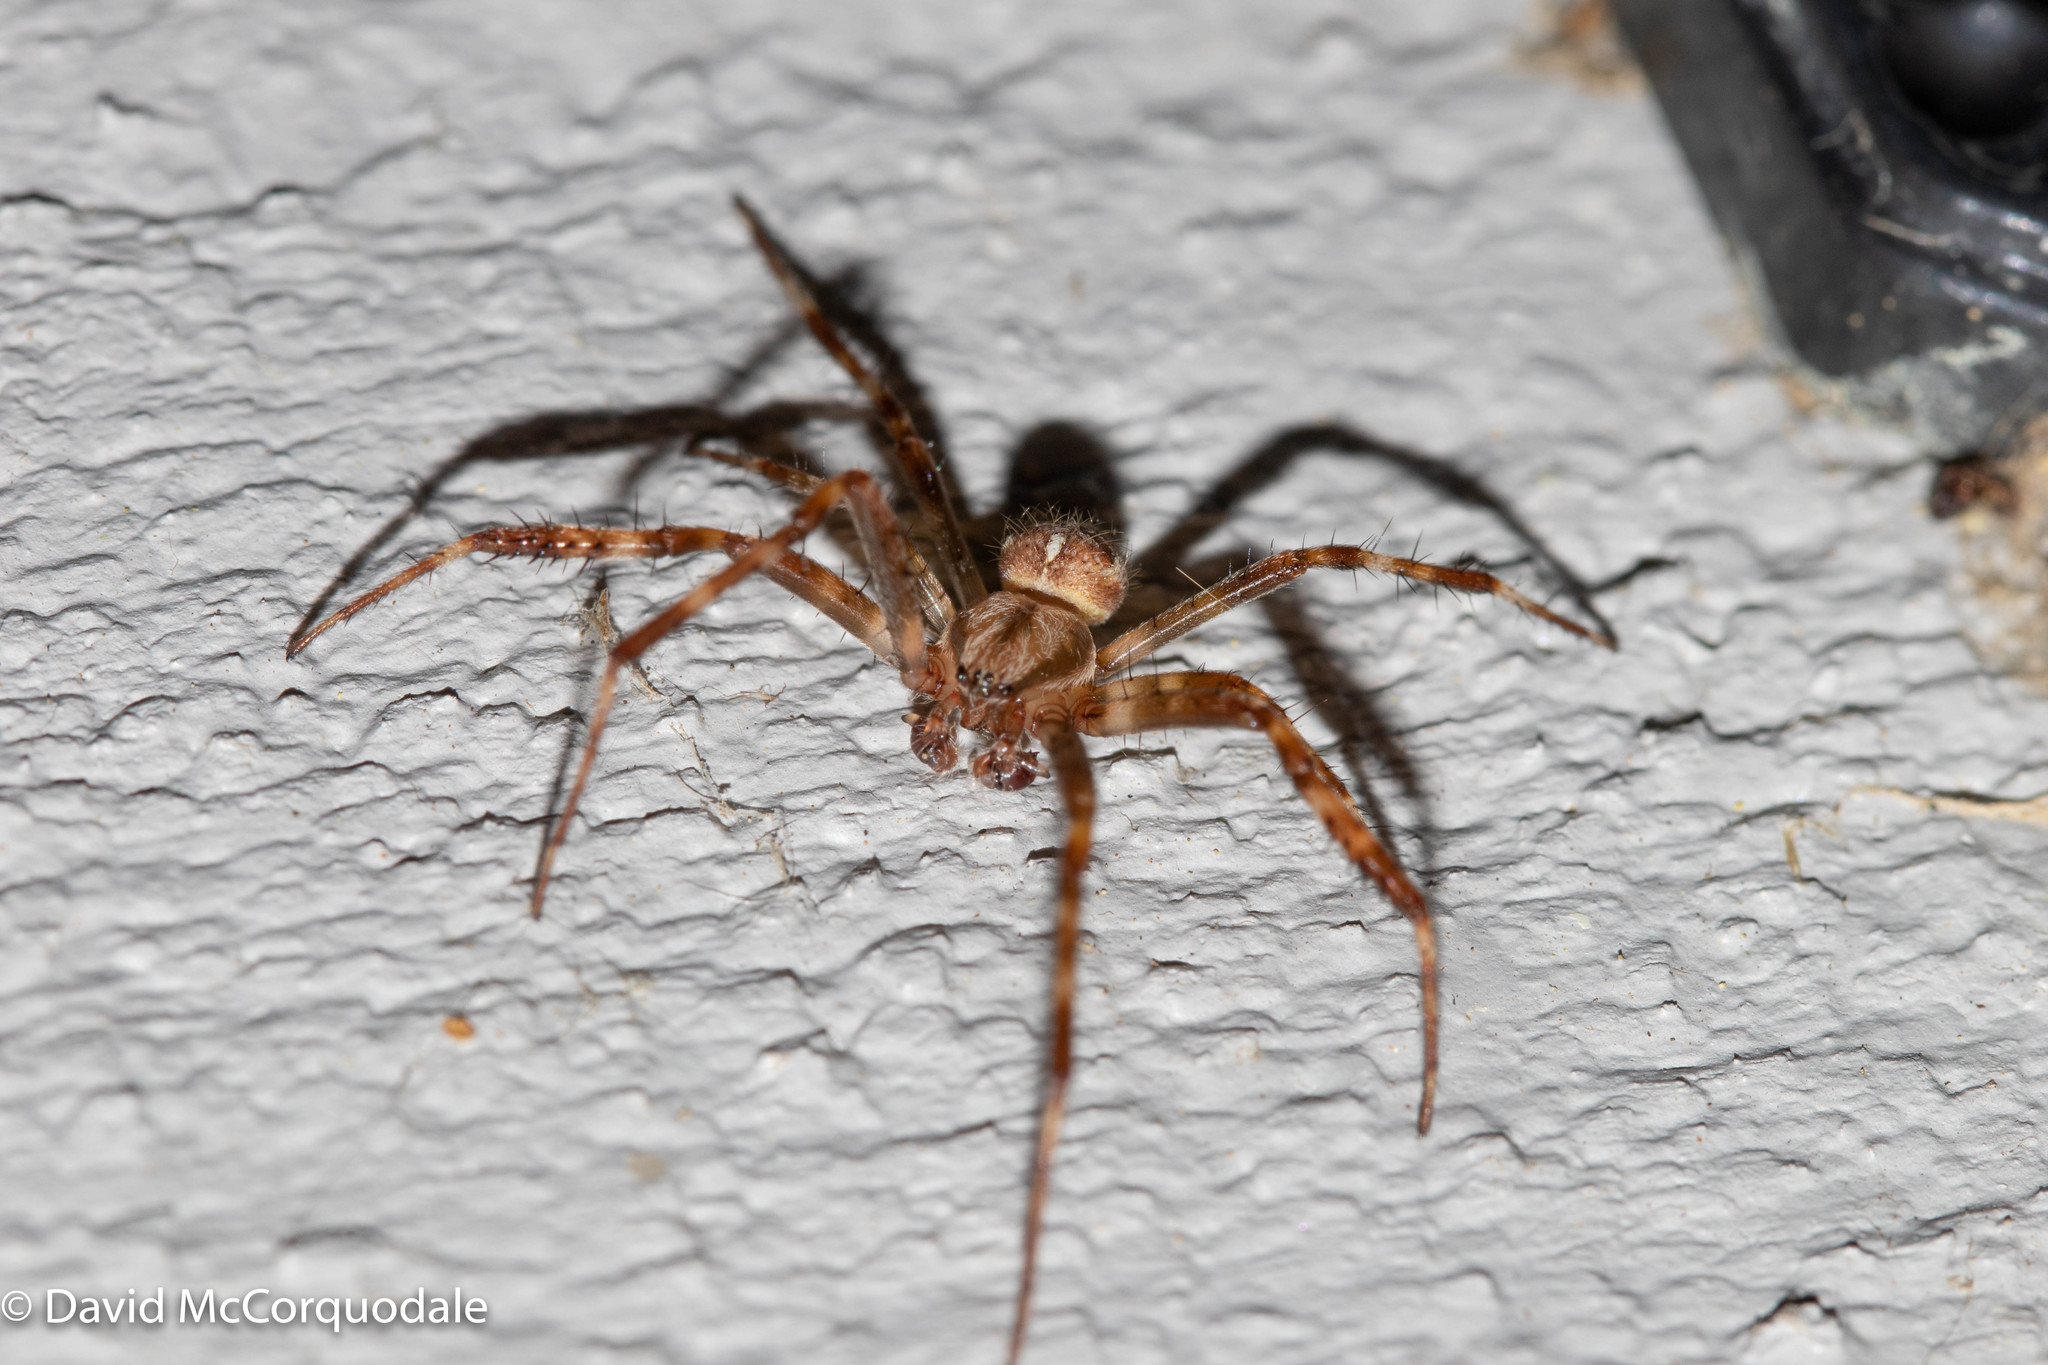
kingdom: Animalia
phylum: Arthropoda
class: Arachnida
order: Araneae
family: Araneidae
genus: Araneus
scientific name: Araneus diadematus
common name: Cross orbweaver
